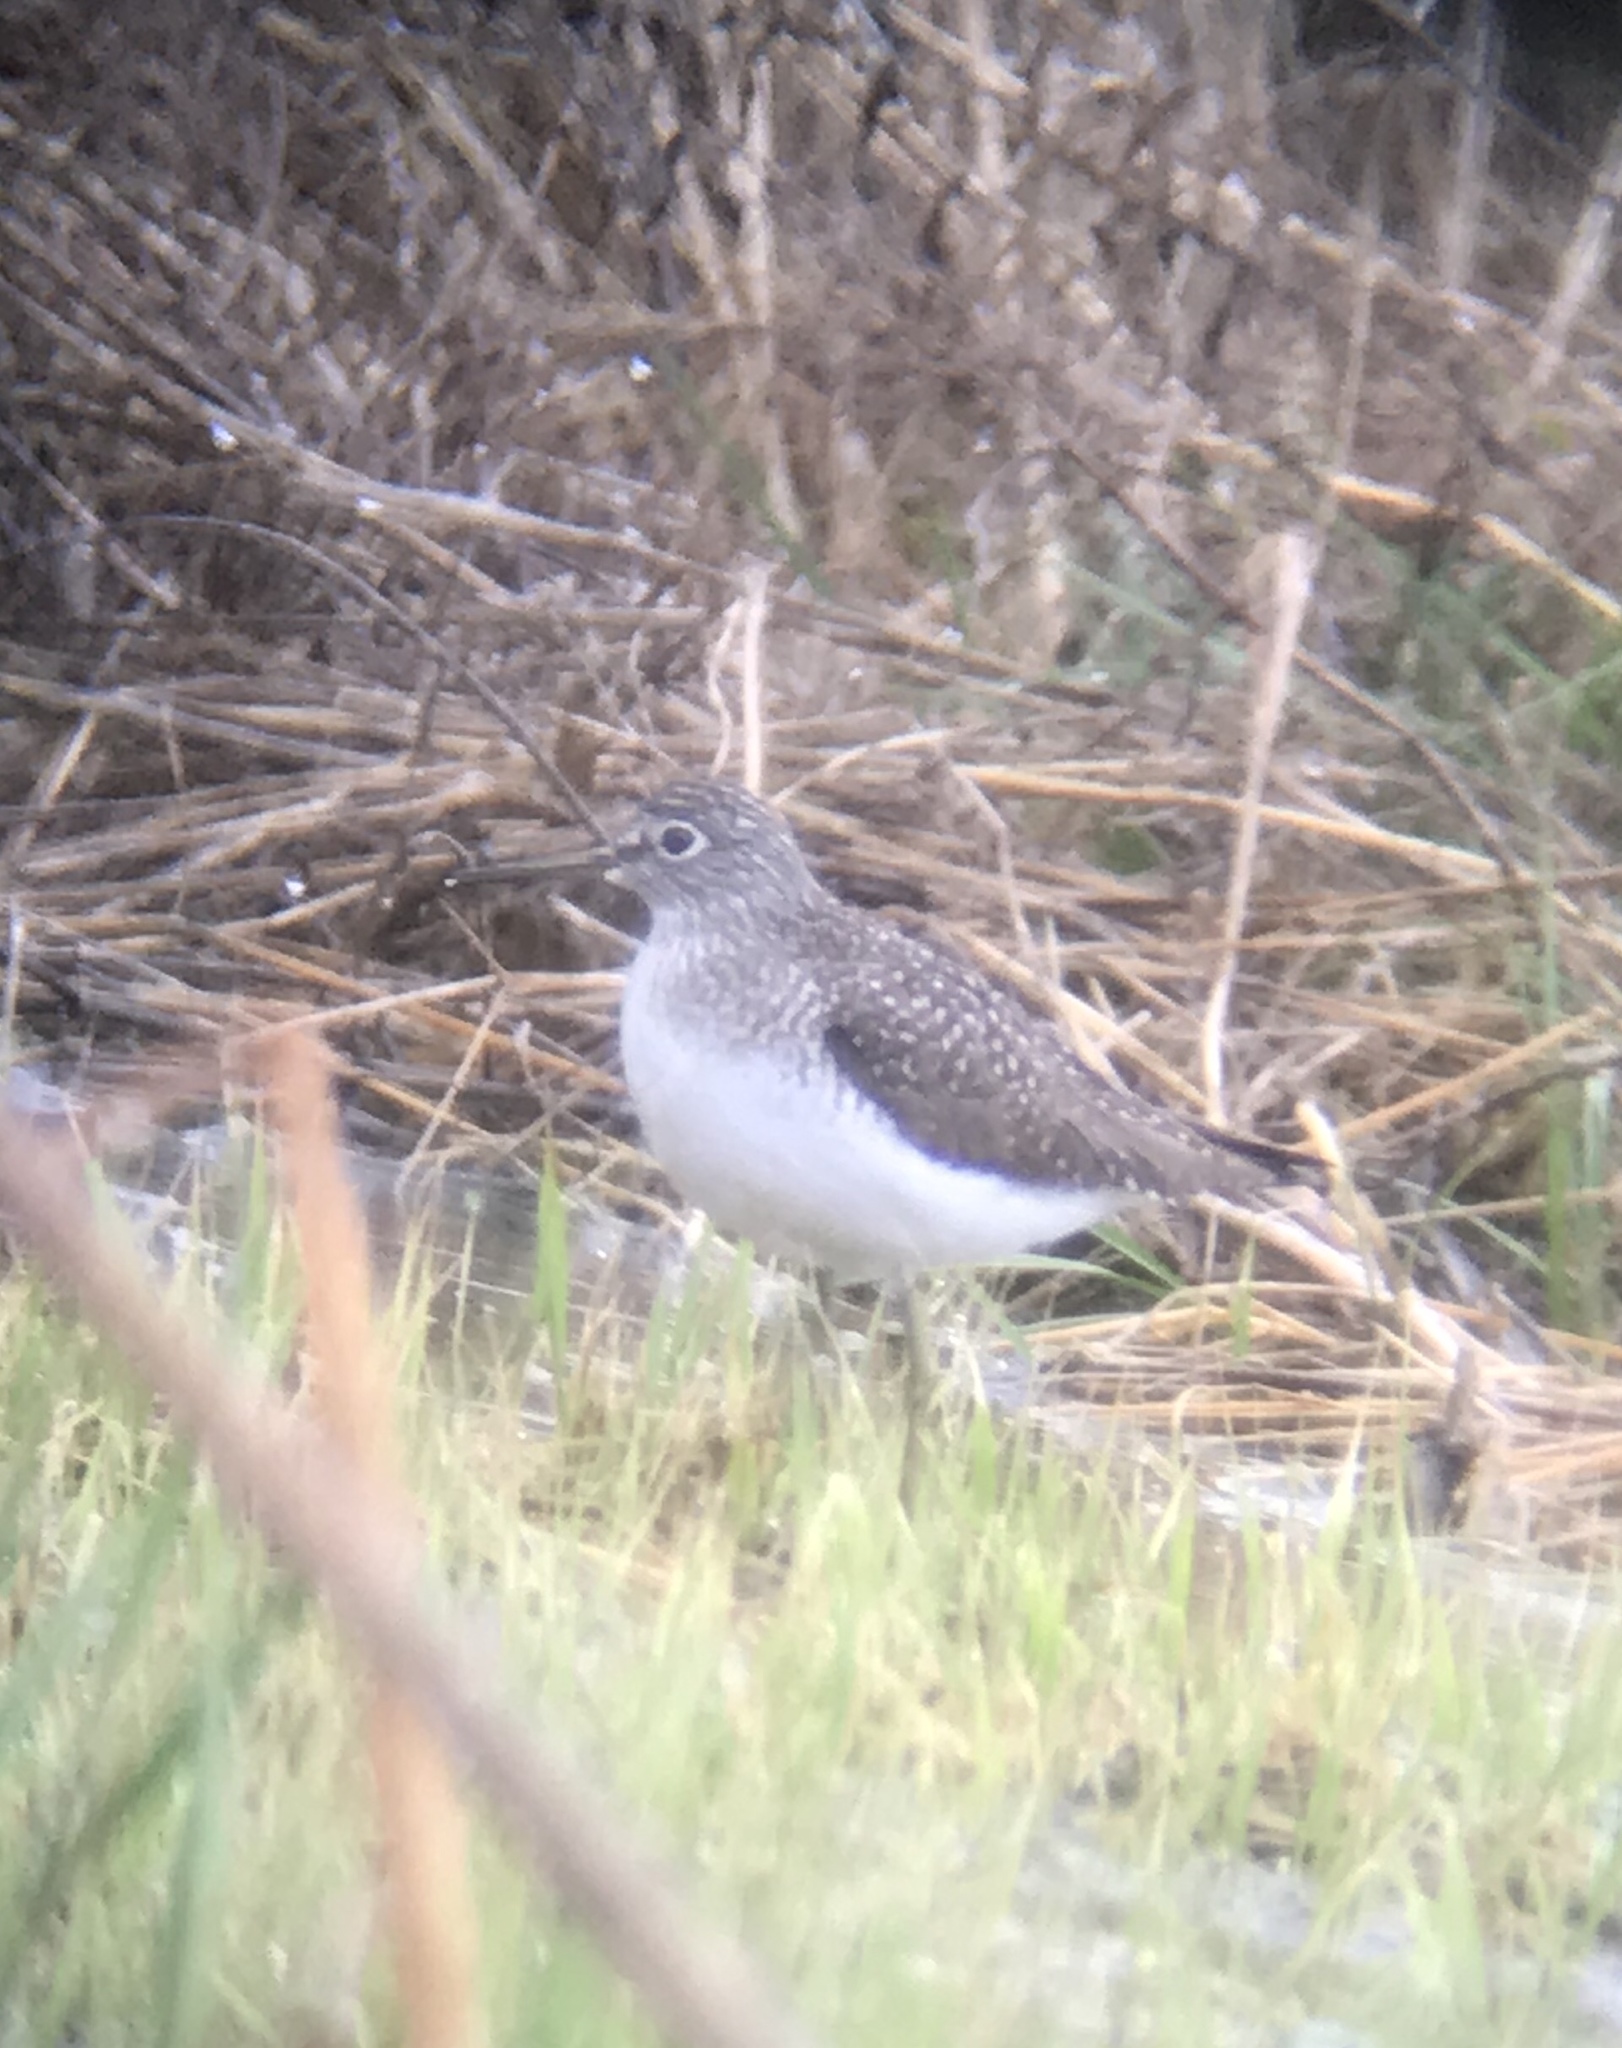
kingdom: Animalia
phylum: Chordata
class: Aves
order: Charadriiformes
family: Scolopacidae
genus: Tringa
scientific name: Tringa solitaria
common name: Solitary sandpiper
